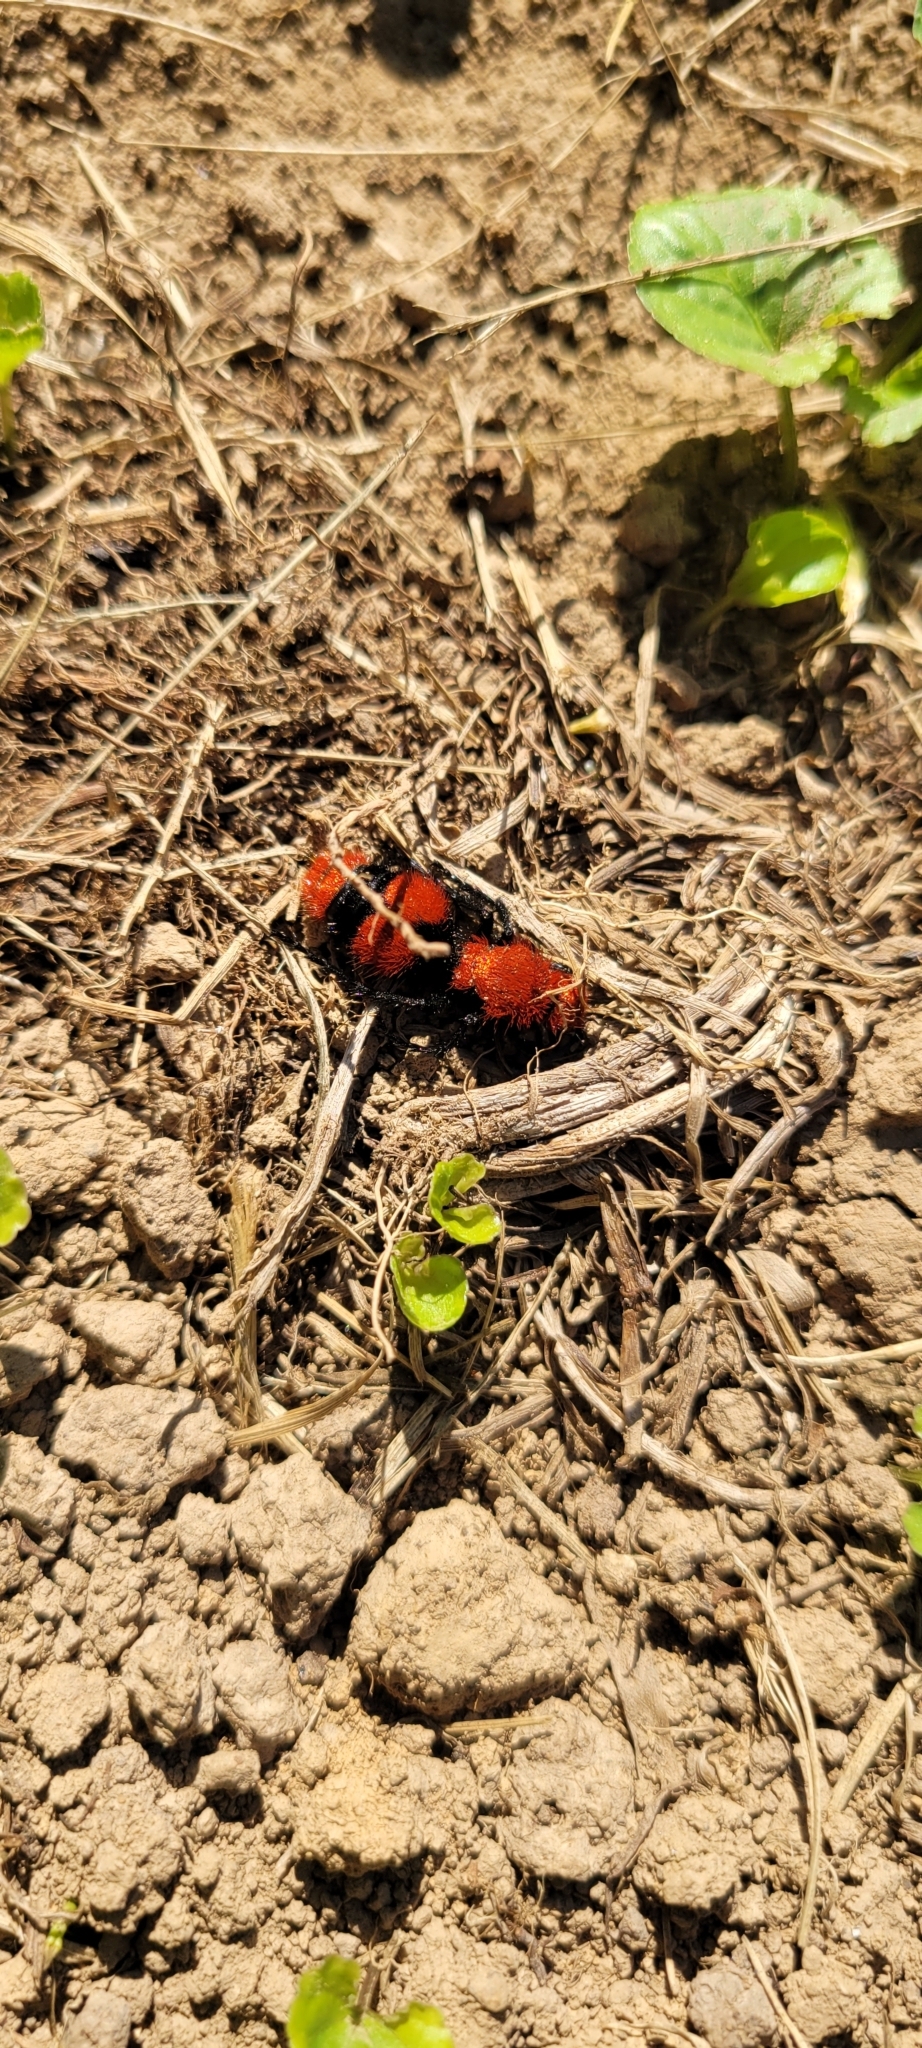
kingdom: Animalia
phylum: Arthropoda
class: Insecta
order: Hymenoptera
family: Mutillidae
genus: Dasymutilla
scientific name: Dasymutilla occidentalis
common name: Common eastern velvet ant
